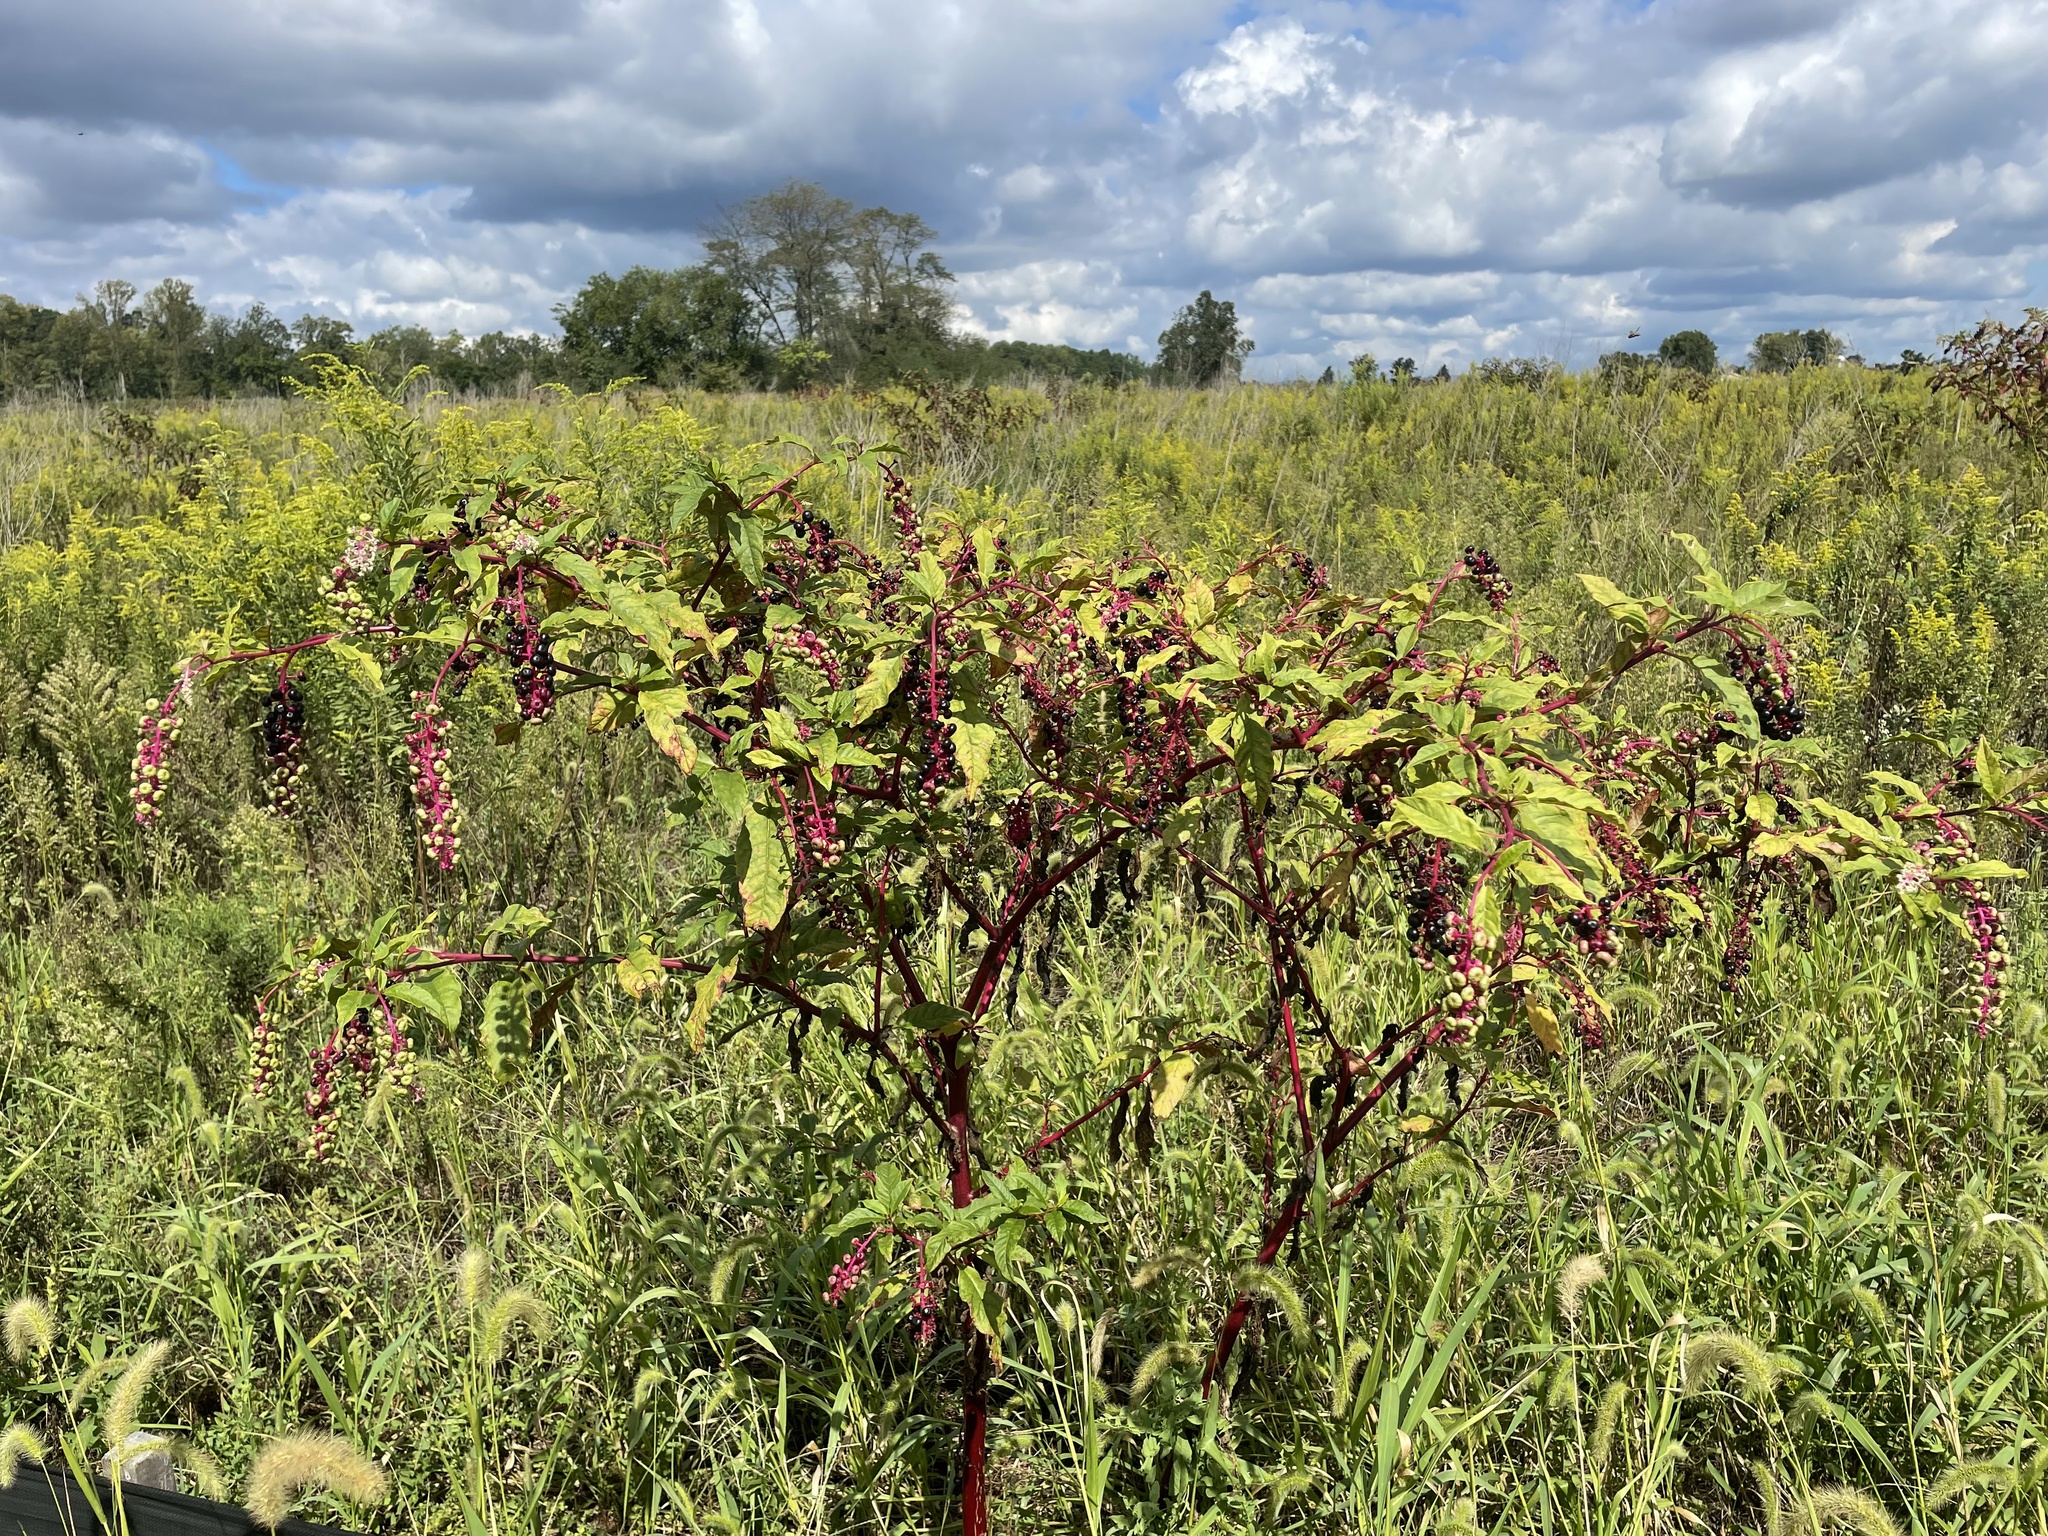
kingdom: Plantae
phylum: Tracheophyta
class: Magnoliopsida
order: Caryophyllales
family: Phytolaccaceae
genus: Phytolacca
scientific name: Phytolacca americana
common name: American pokeweed
